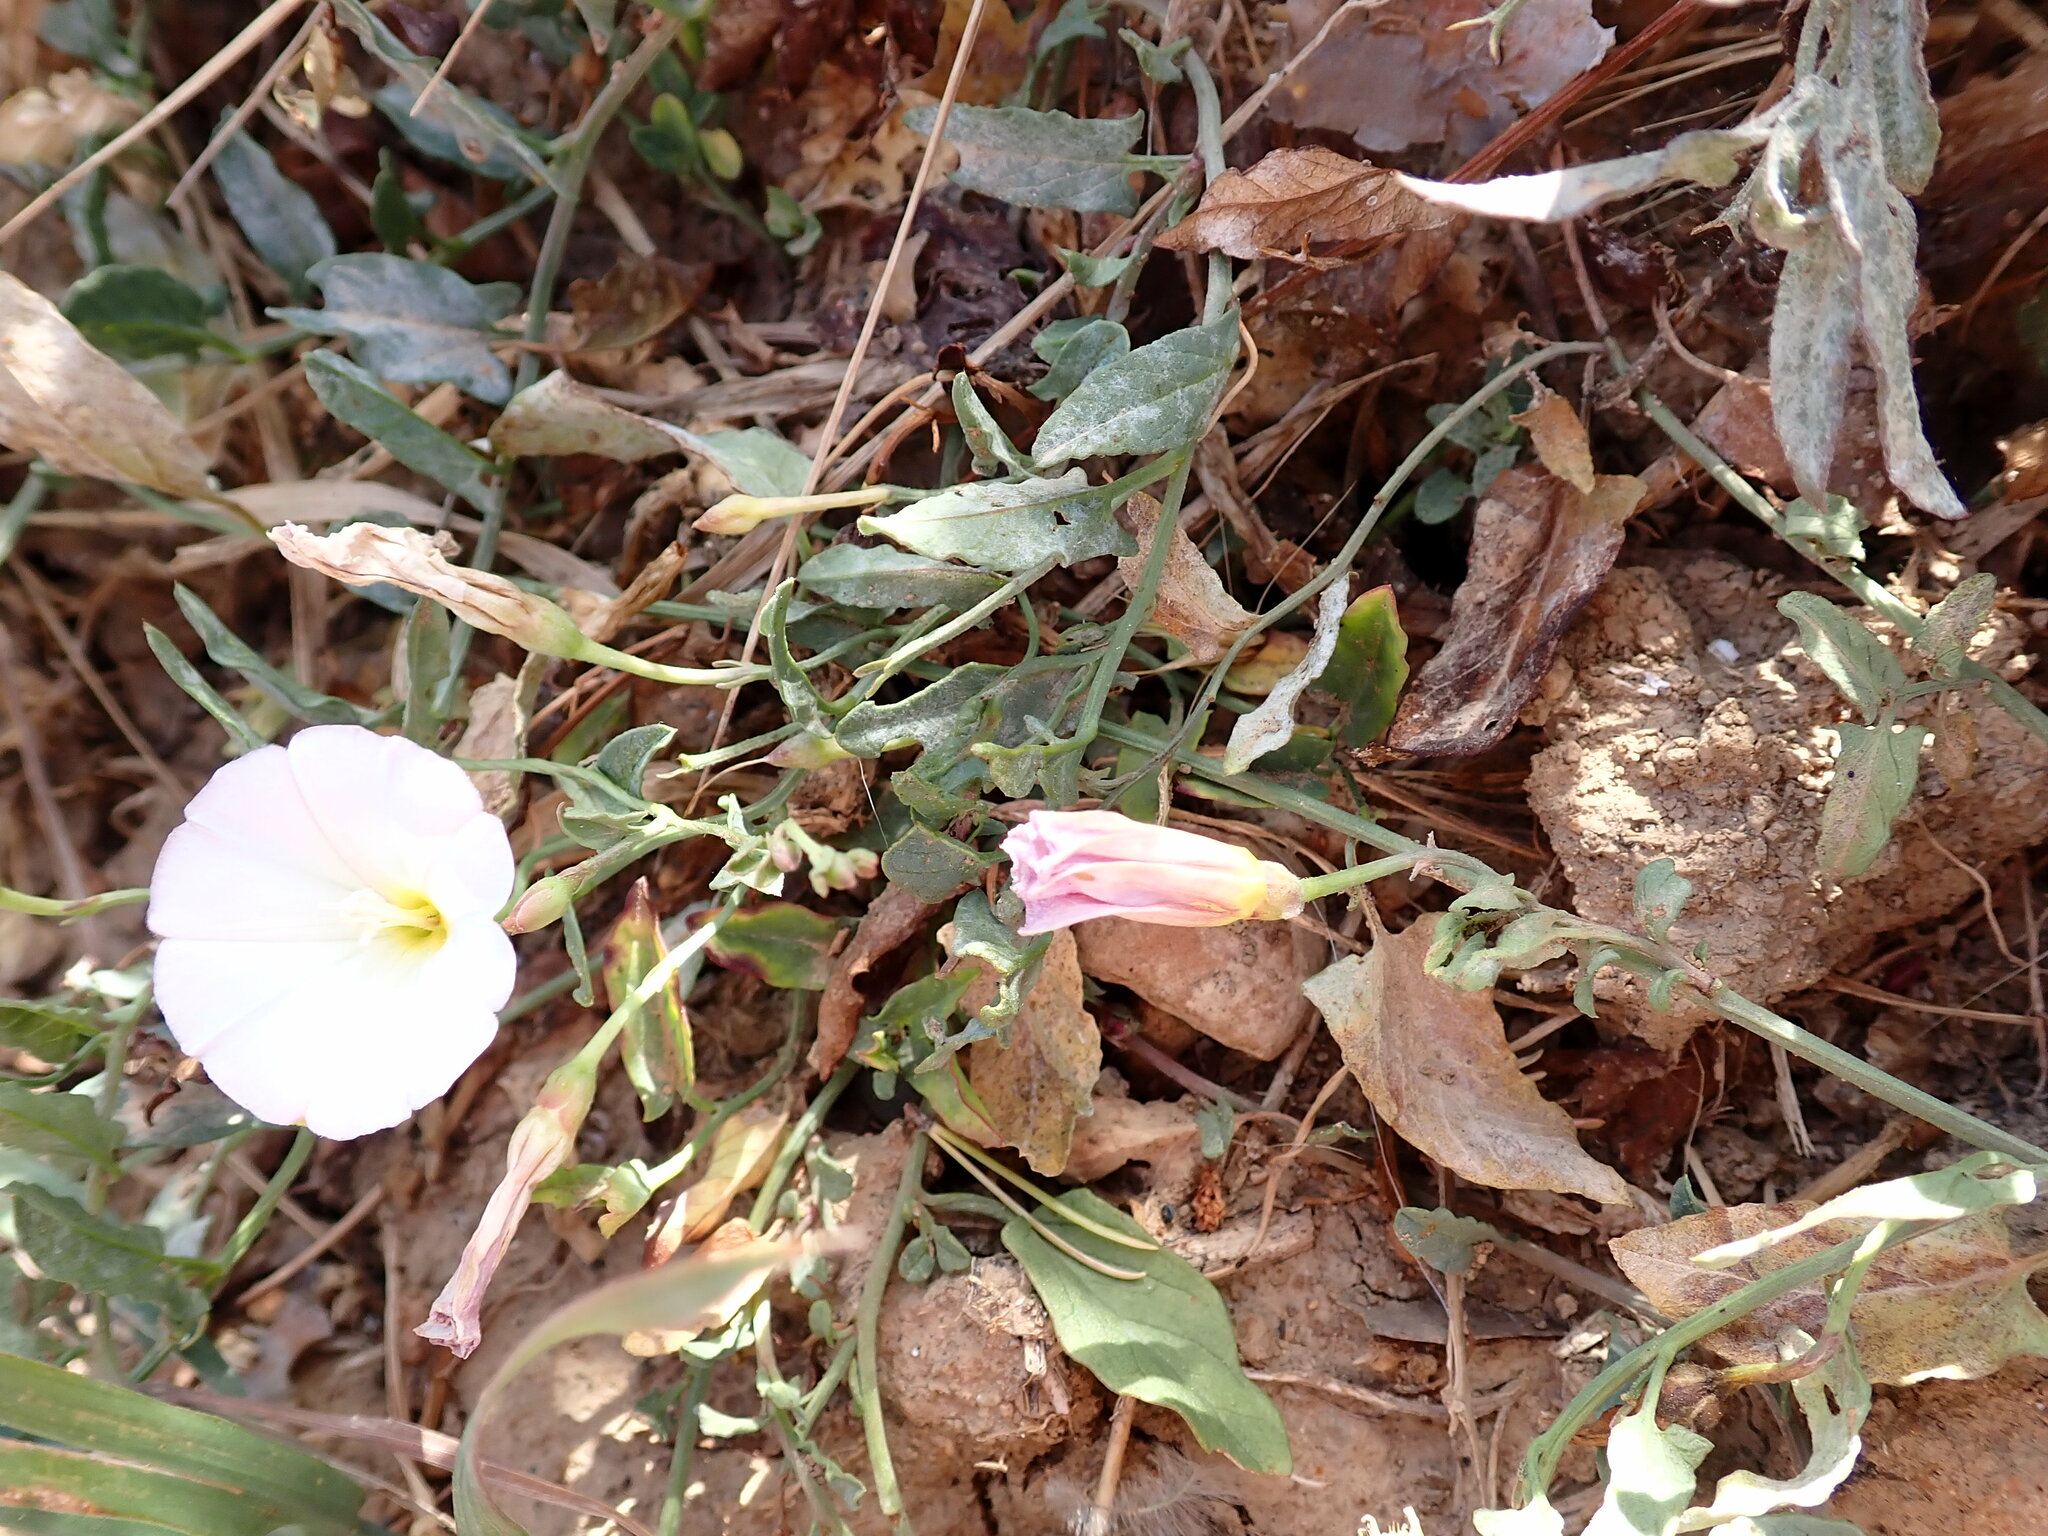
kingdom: Plantae
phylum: Tracheophyta
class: Magnoliopsida
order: Solanales
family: Convolvulaceae
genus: Convolvulus
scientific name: Convolvulus arvensis
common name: Field bindweed
